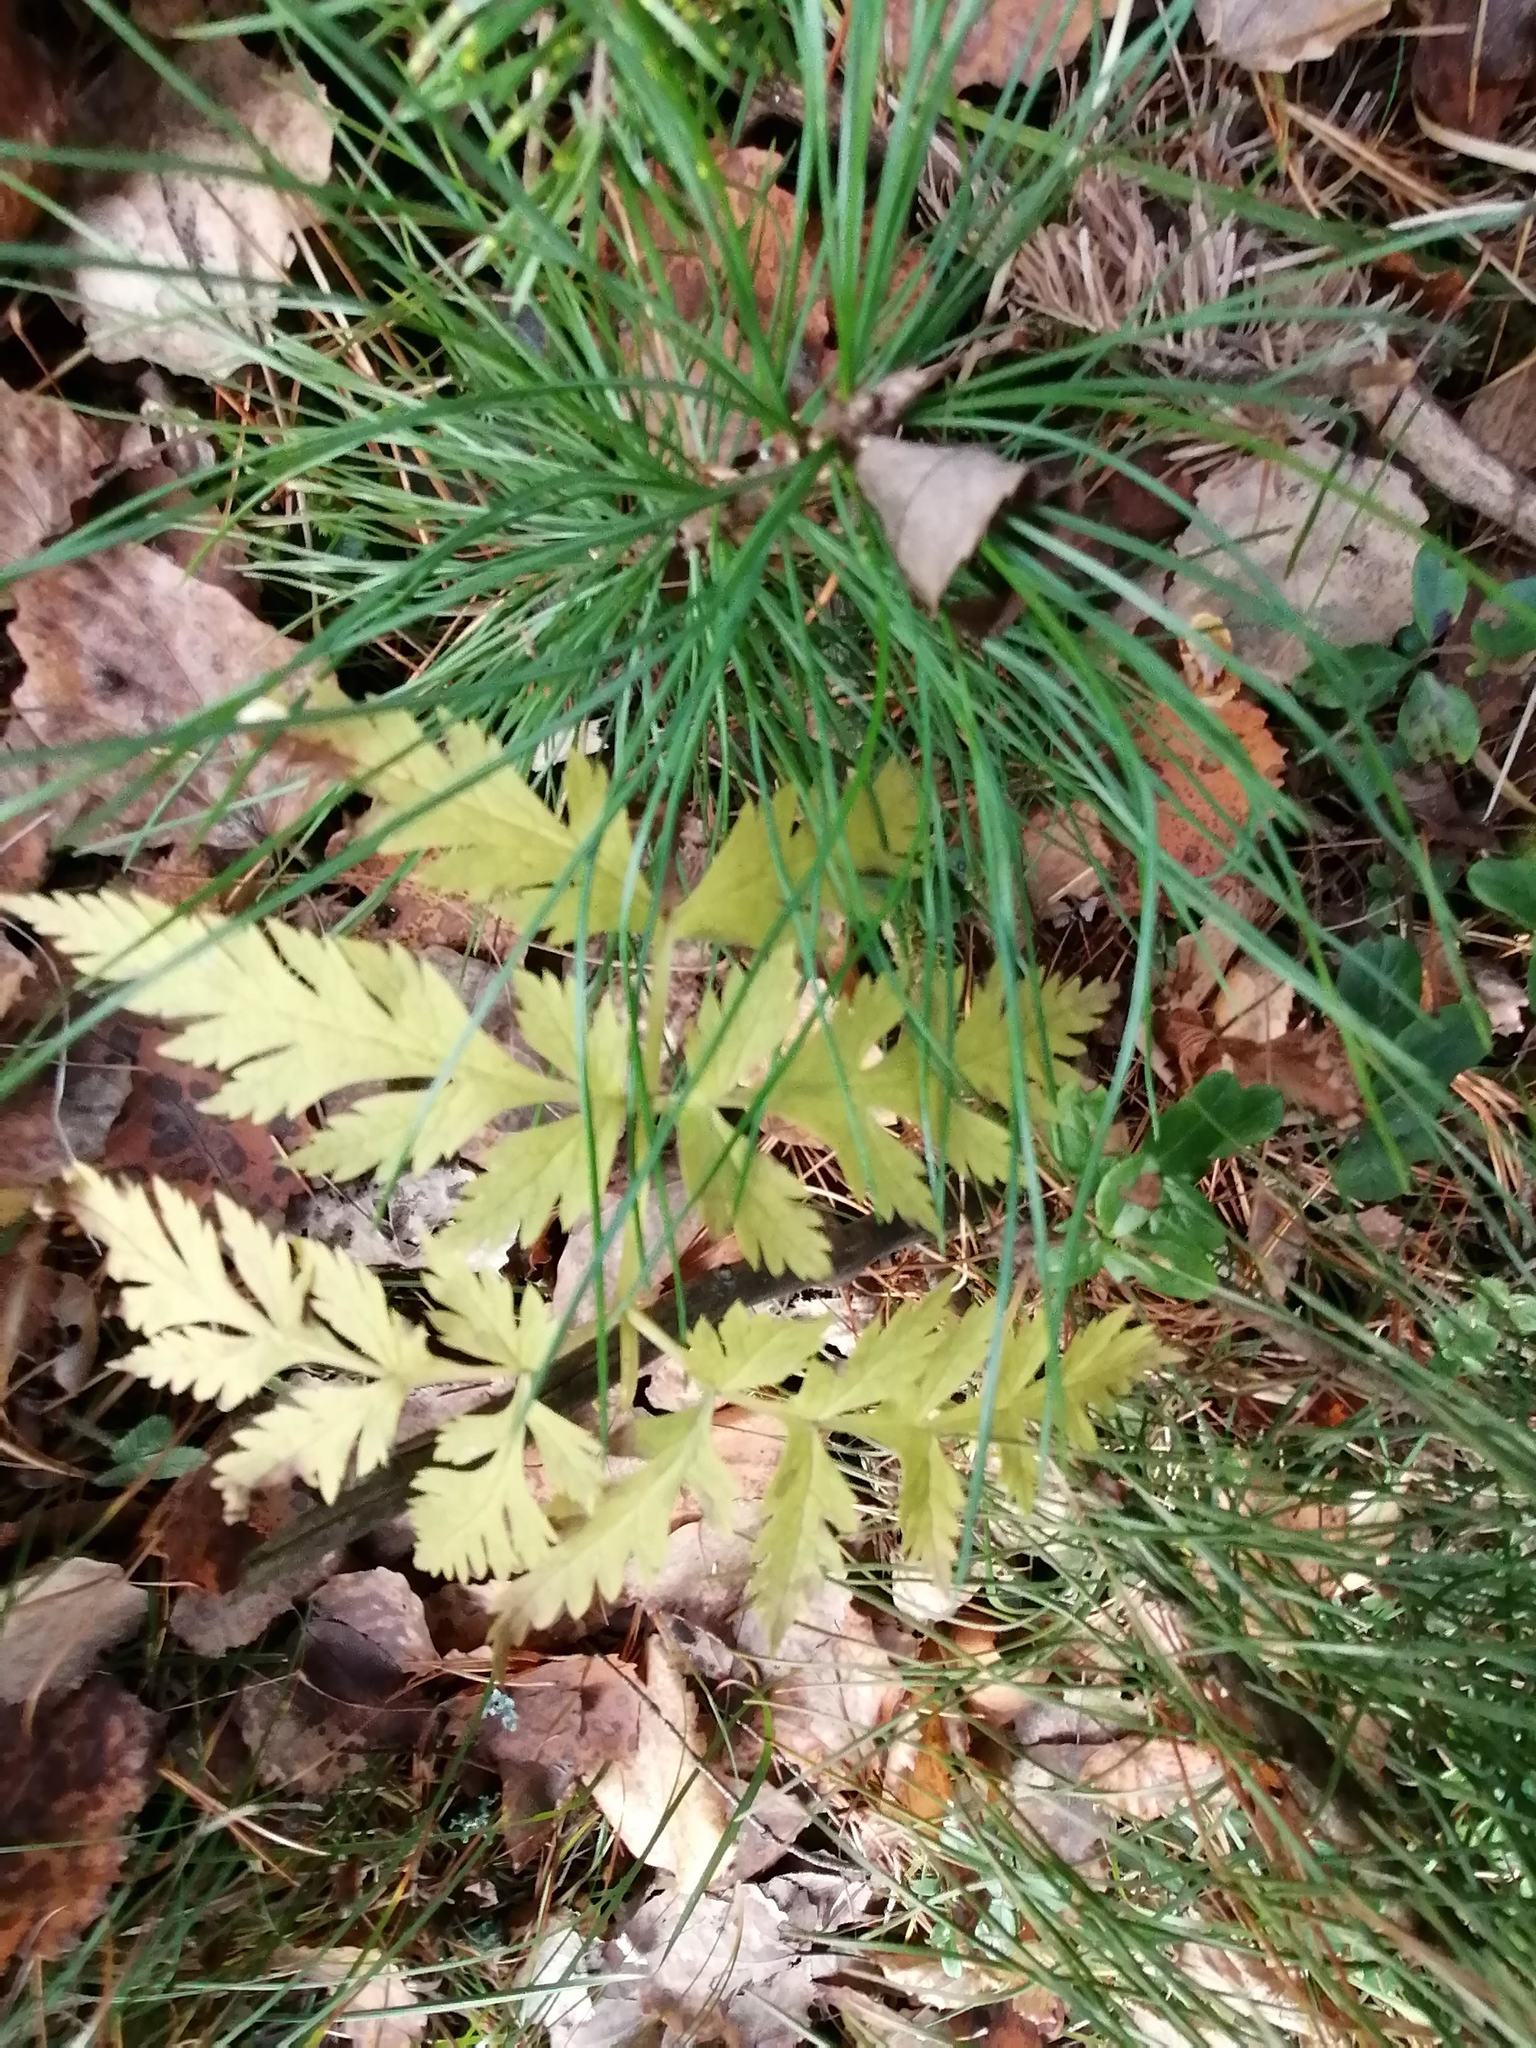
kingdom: Plantae
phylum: Tracheophyta
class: Magnoliopsida
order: Apiales
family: Apiaceae
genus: Pleurospermum
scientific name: Pleurospermum uralense
